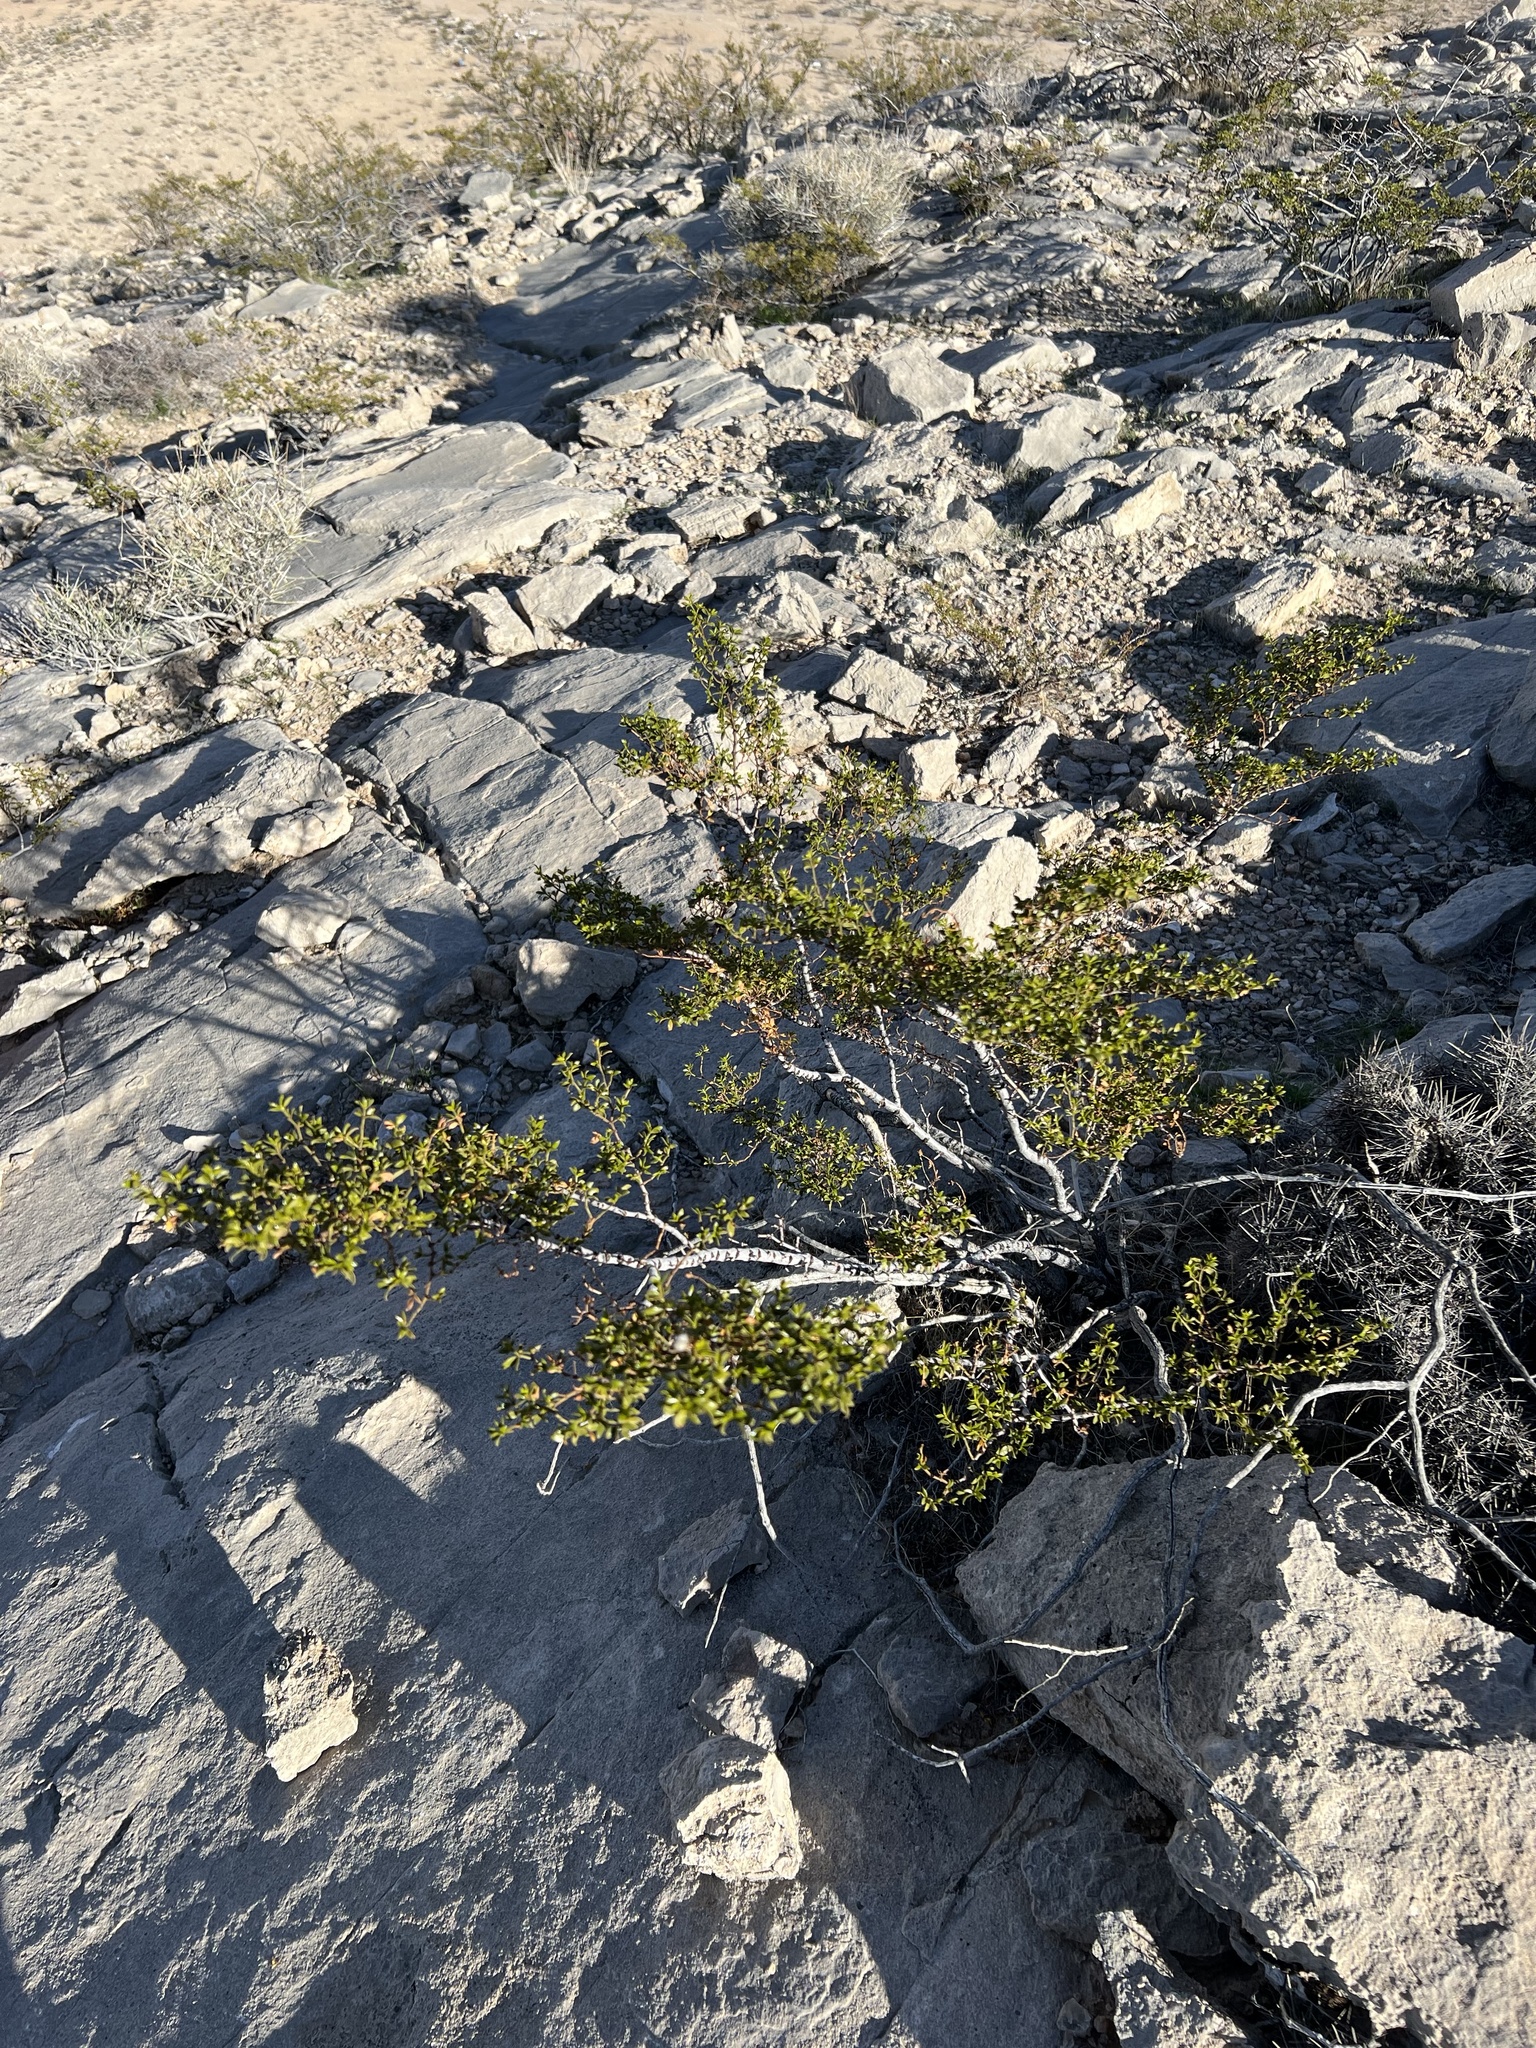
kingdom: Plantae
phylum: Tracheophyta
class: Magnoliopsida
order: Zygophyllales
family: Zygophyllaceae
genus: Larrea
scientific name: Larrea tridentata
